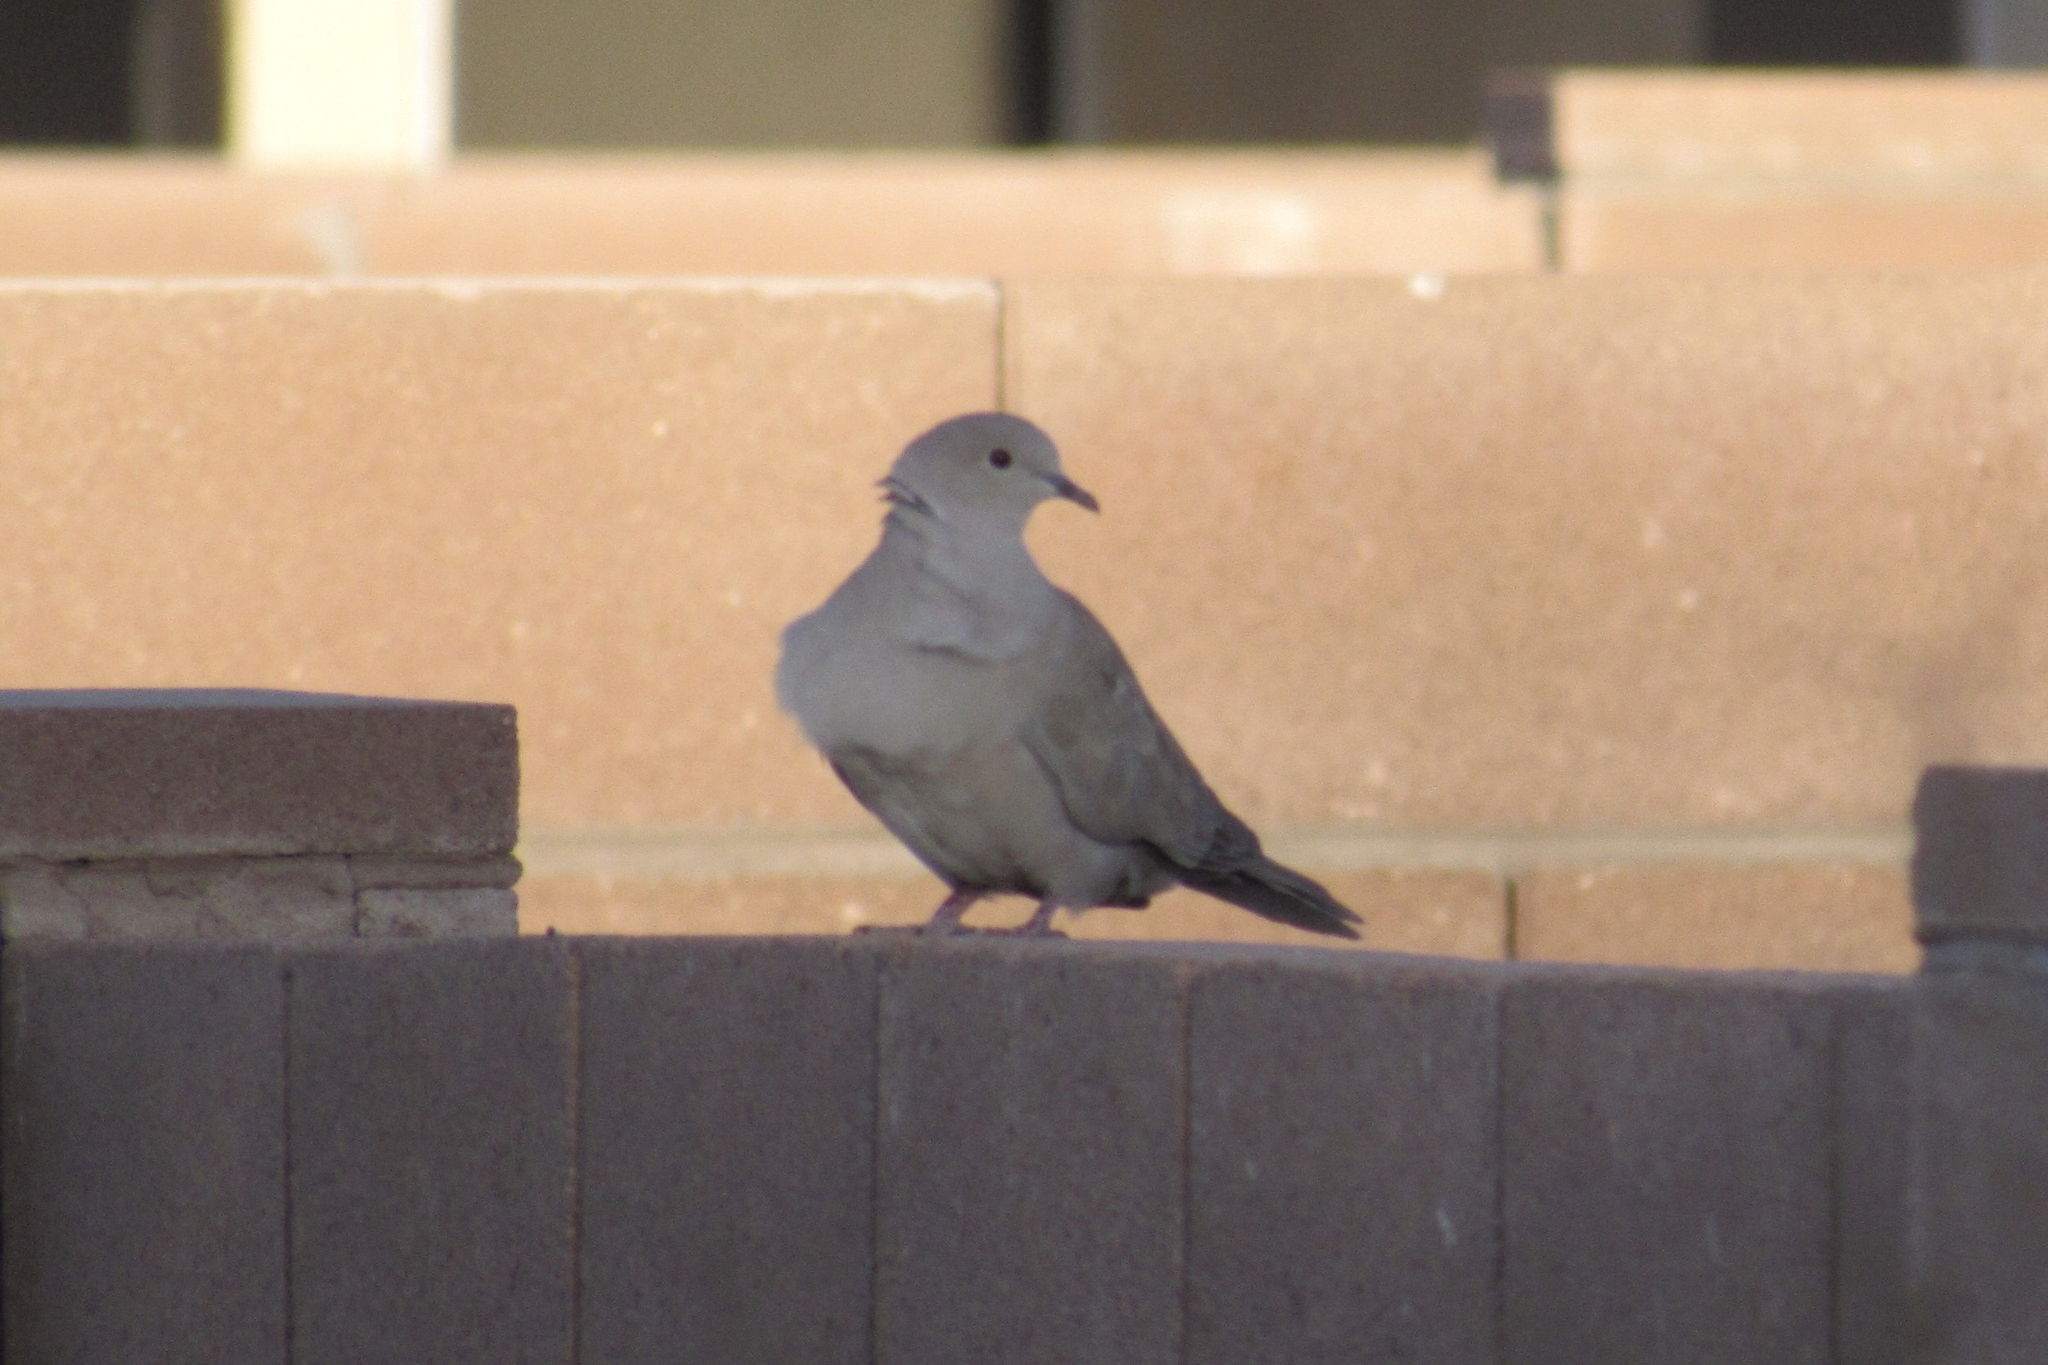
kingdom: Animalia
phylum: Chordata
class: Aves
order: Columbiformes
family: Columbidae
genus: Streptopelia
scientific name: Streptopelia decaocto
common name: Eurasian collared dove
